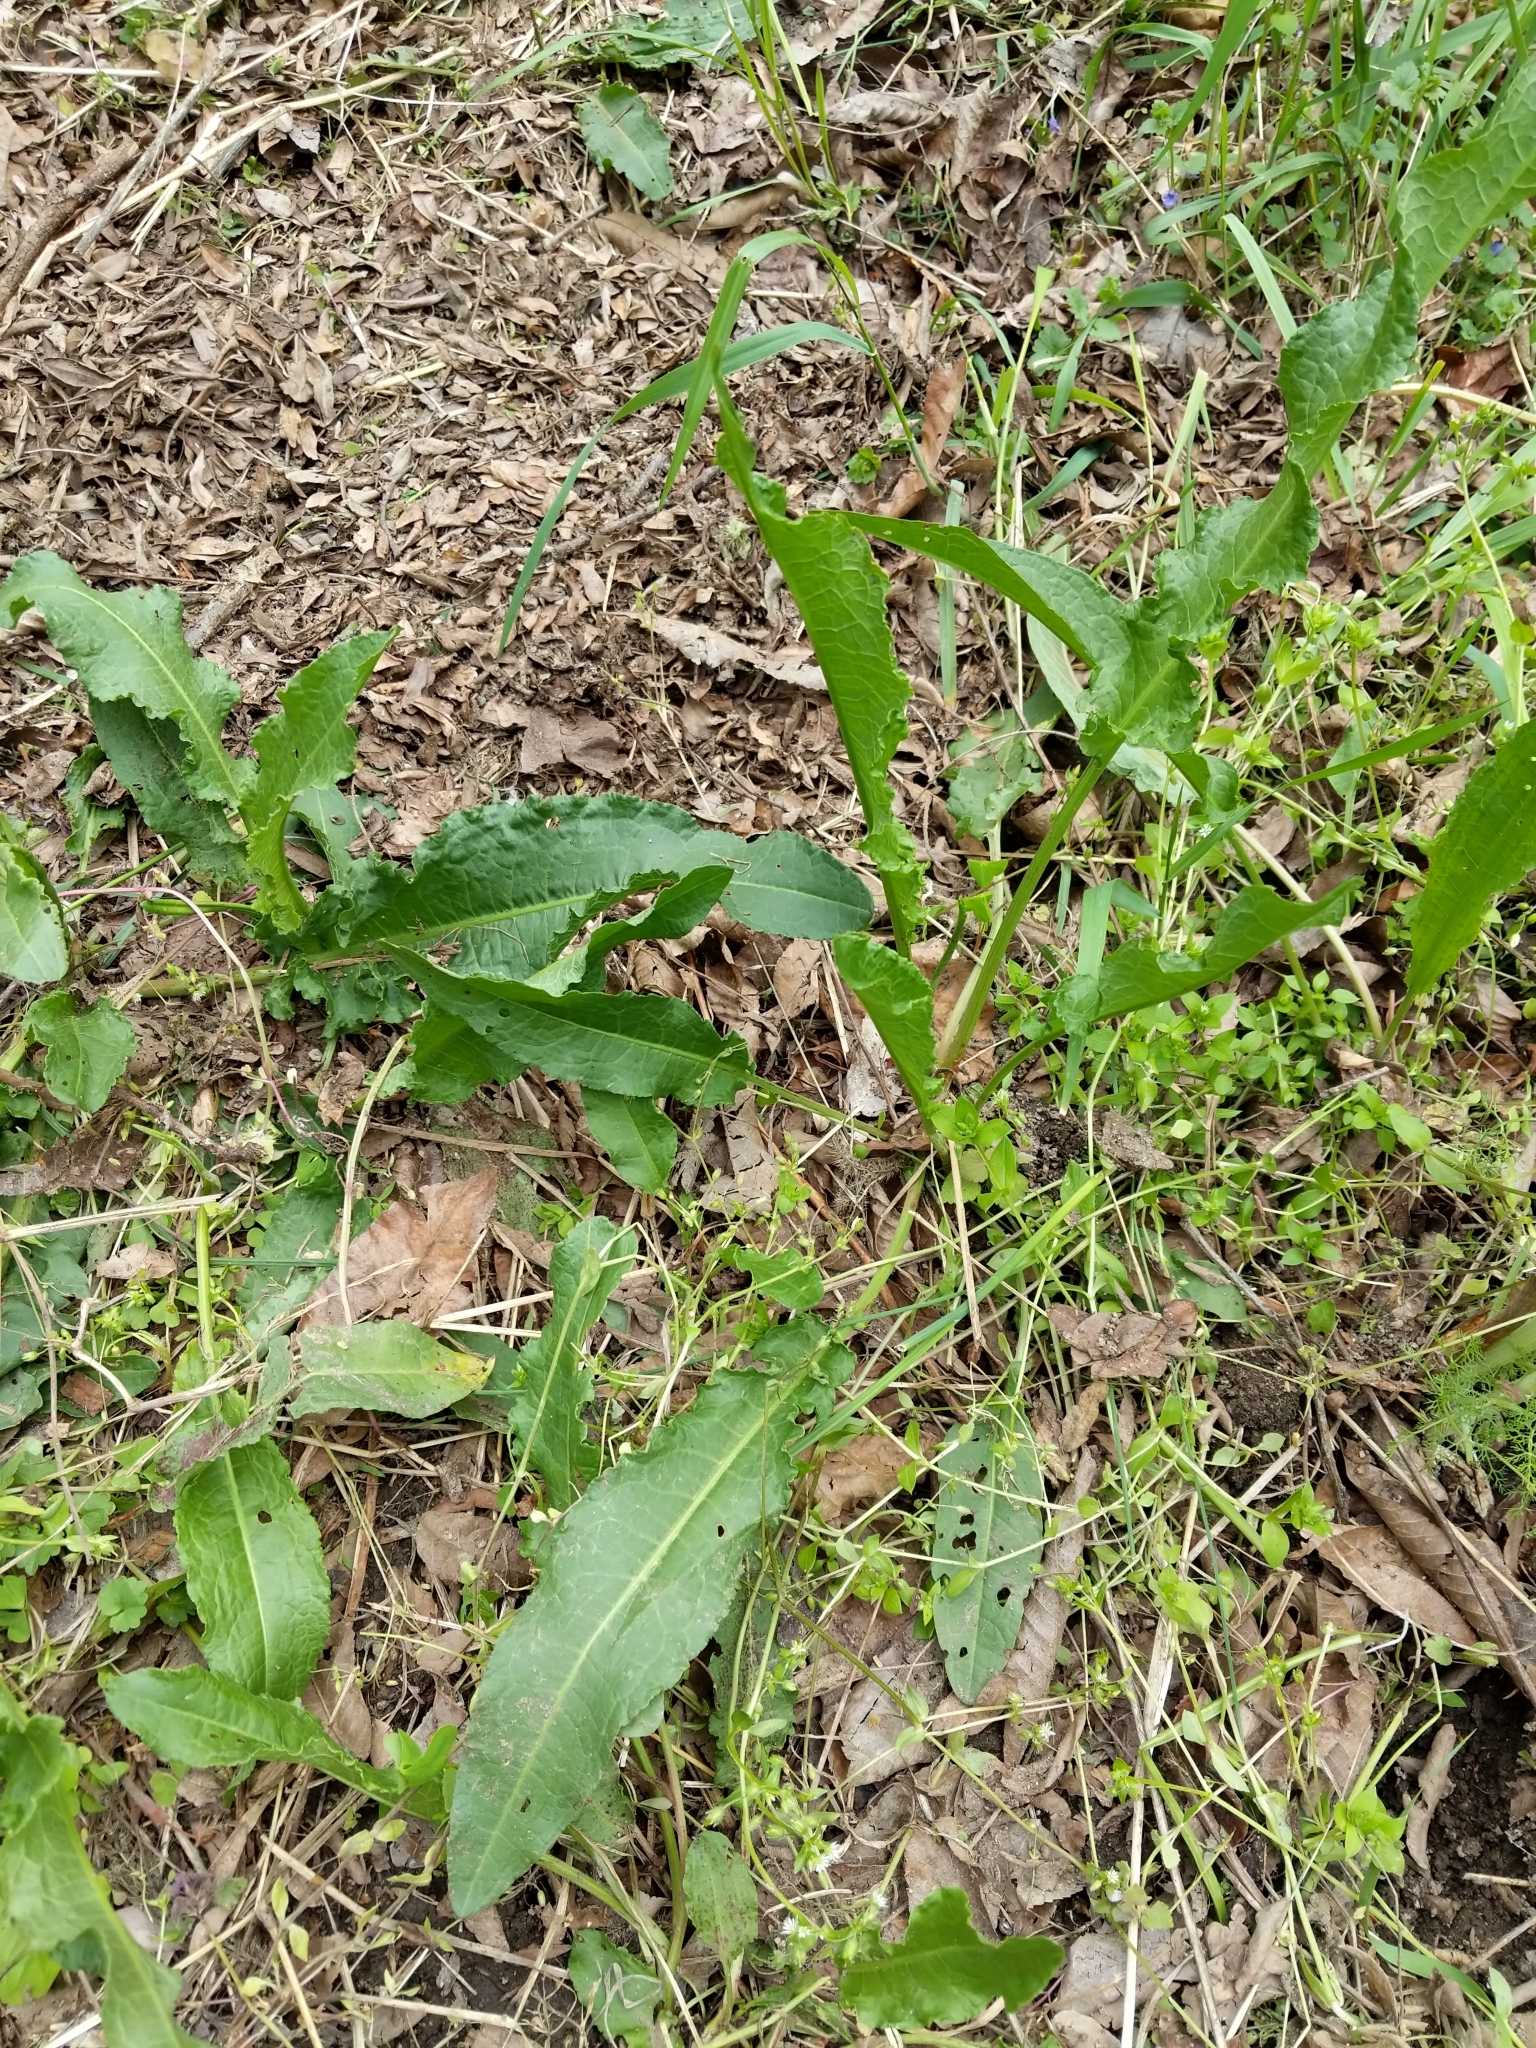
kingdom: Plantae
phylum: Tracheophyta
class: Magnoliopsida
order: Caryophyllales
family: Polygonaceae
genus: Rumex
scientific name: Rumex crispus
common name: Curled dock
